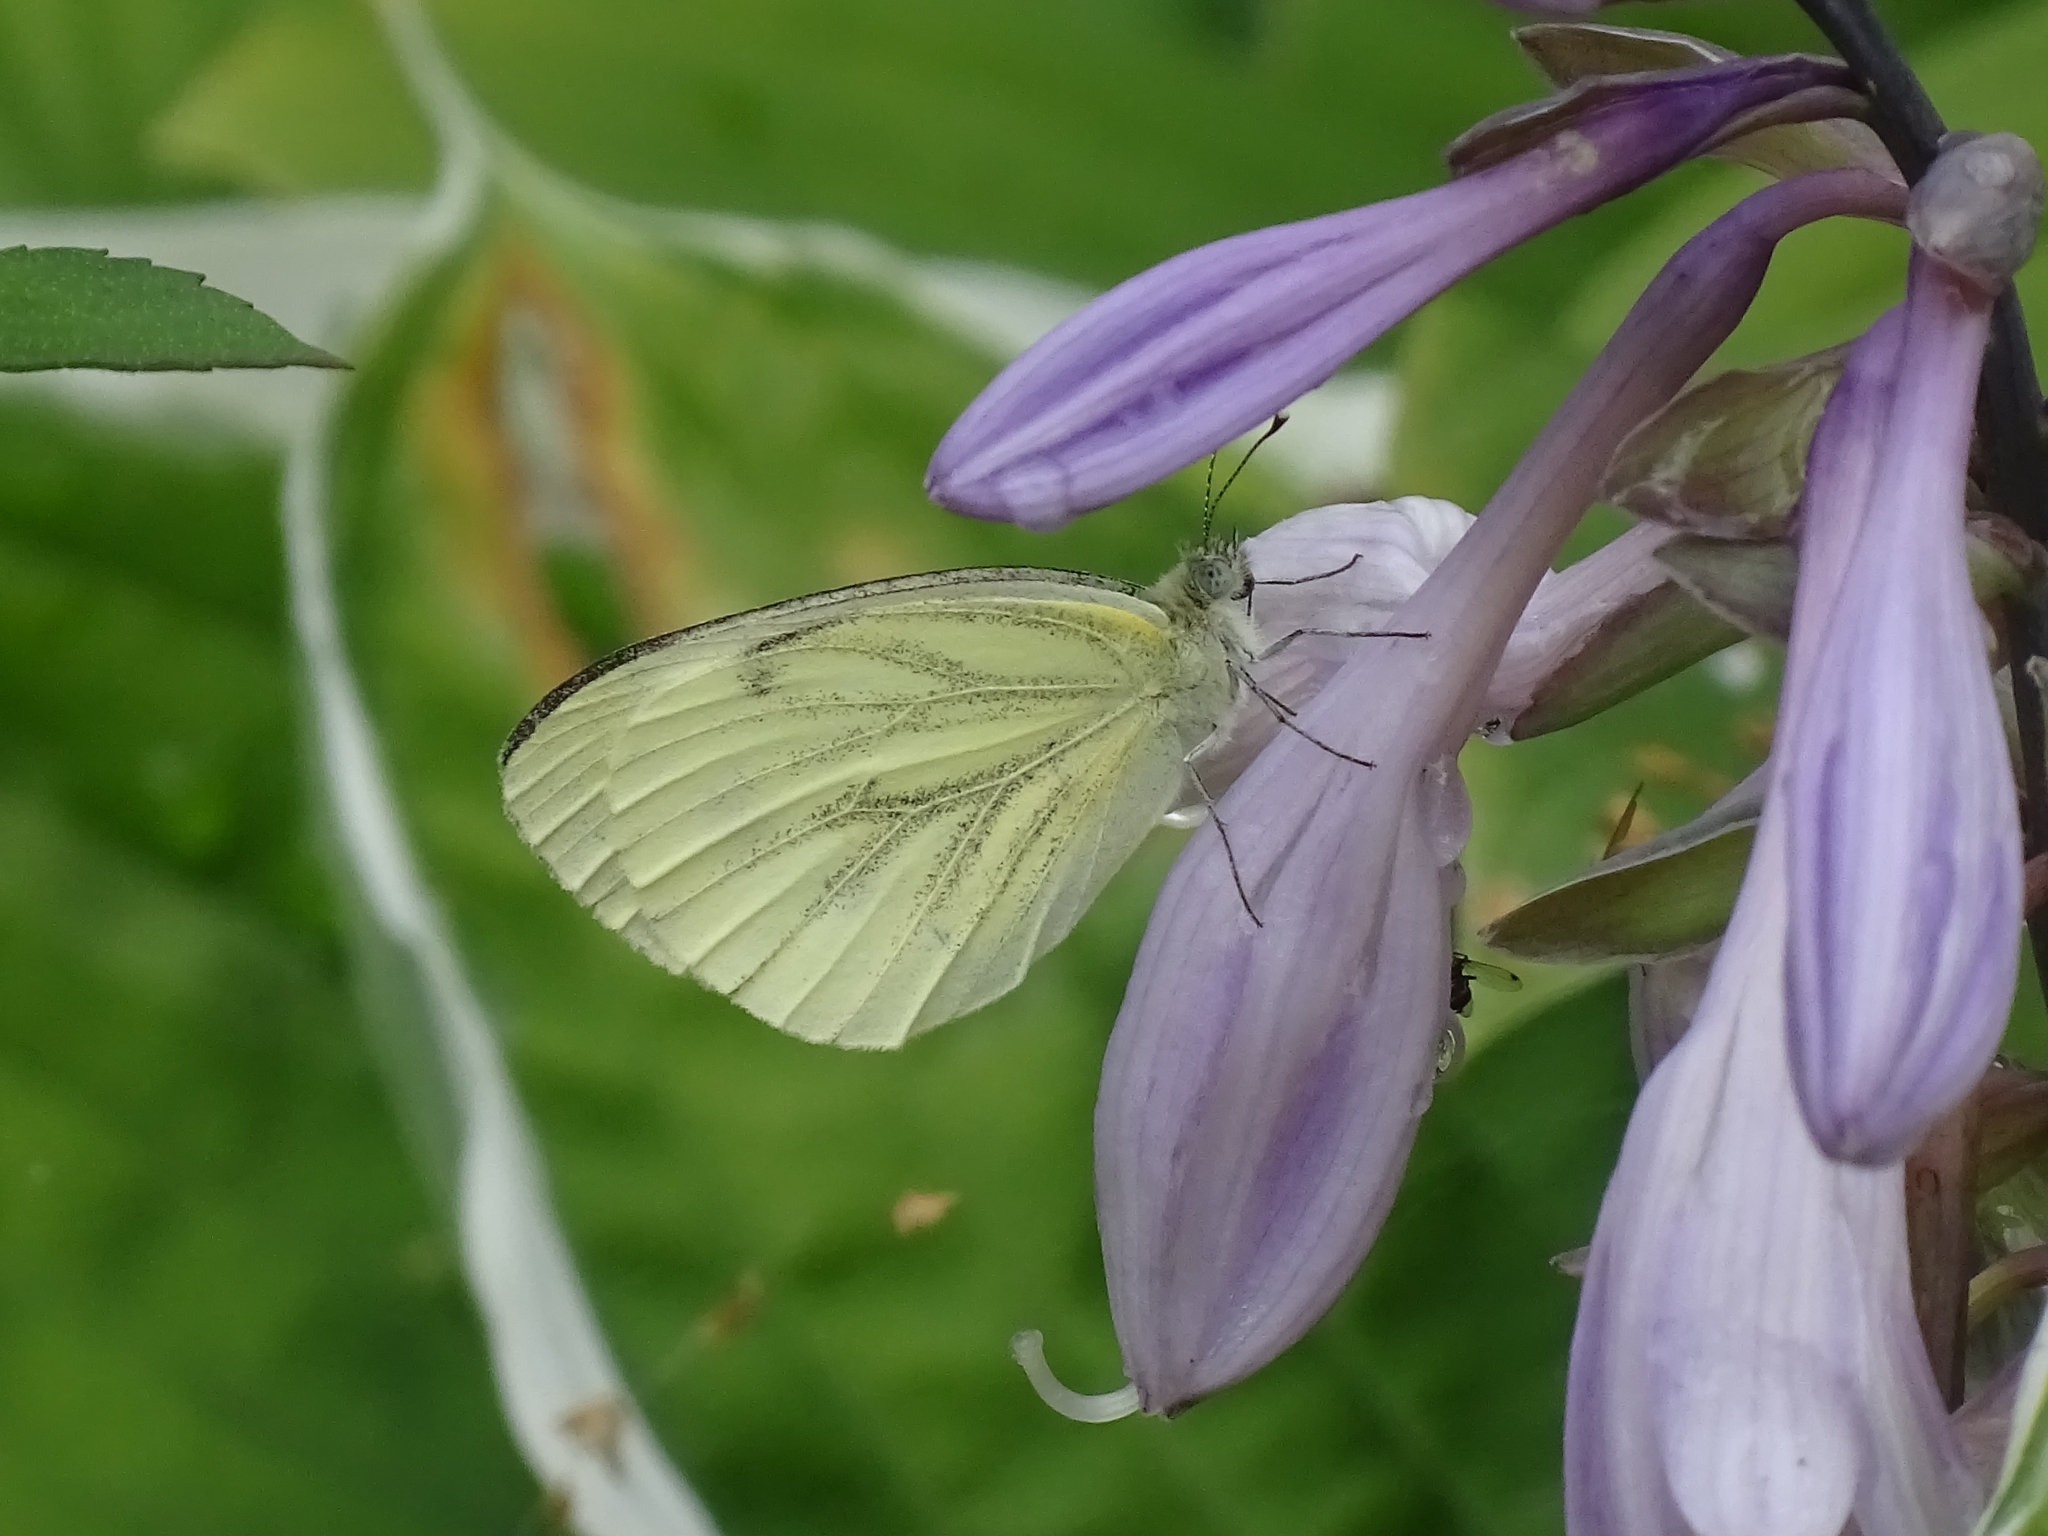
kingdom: Animalia
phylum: Arthropoda
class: Insecta
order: Lepidoptera
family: Pieridae
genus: Pieris
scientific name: Pieris napi
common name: Green-veined white
